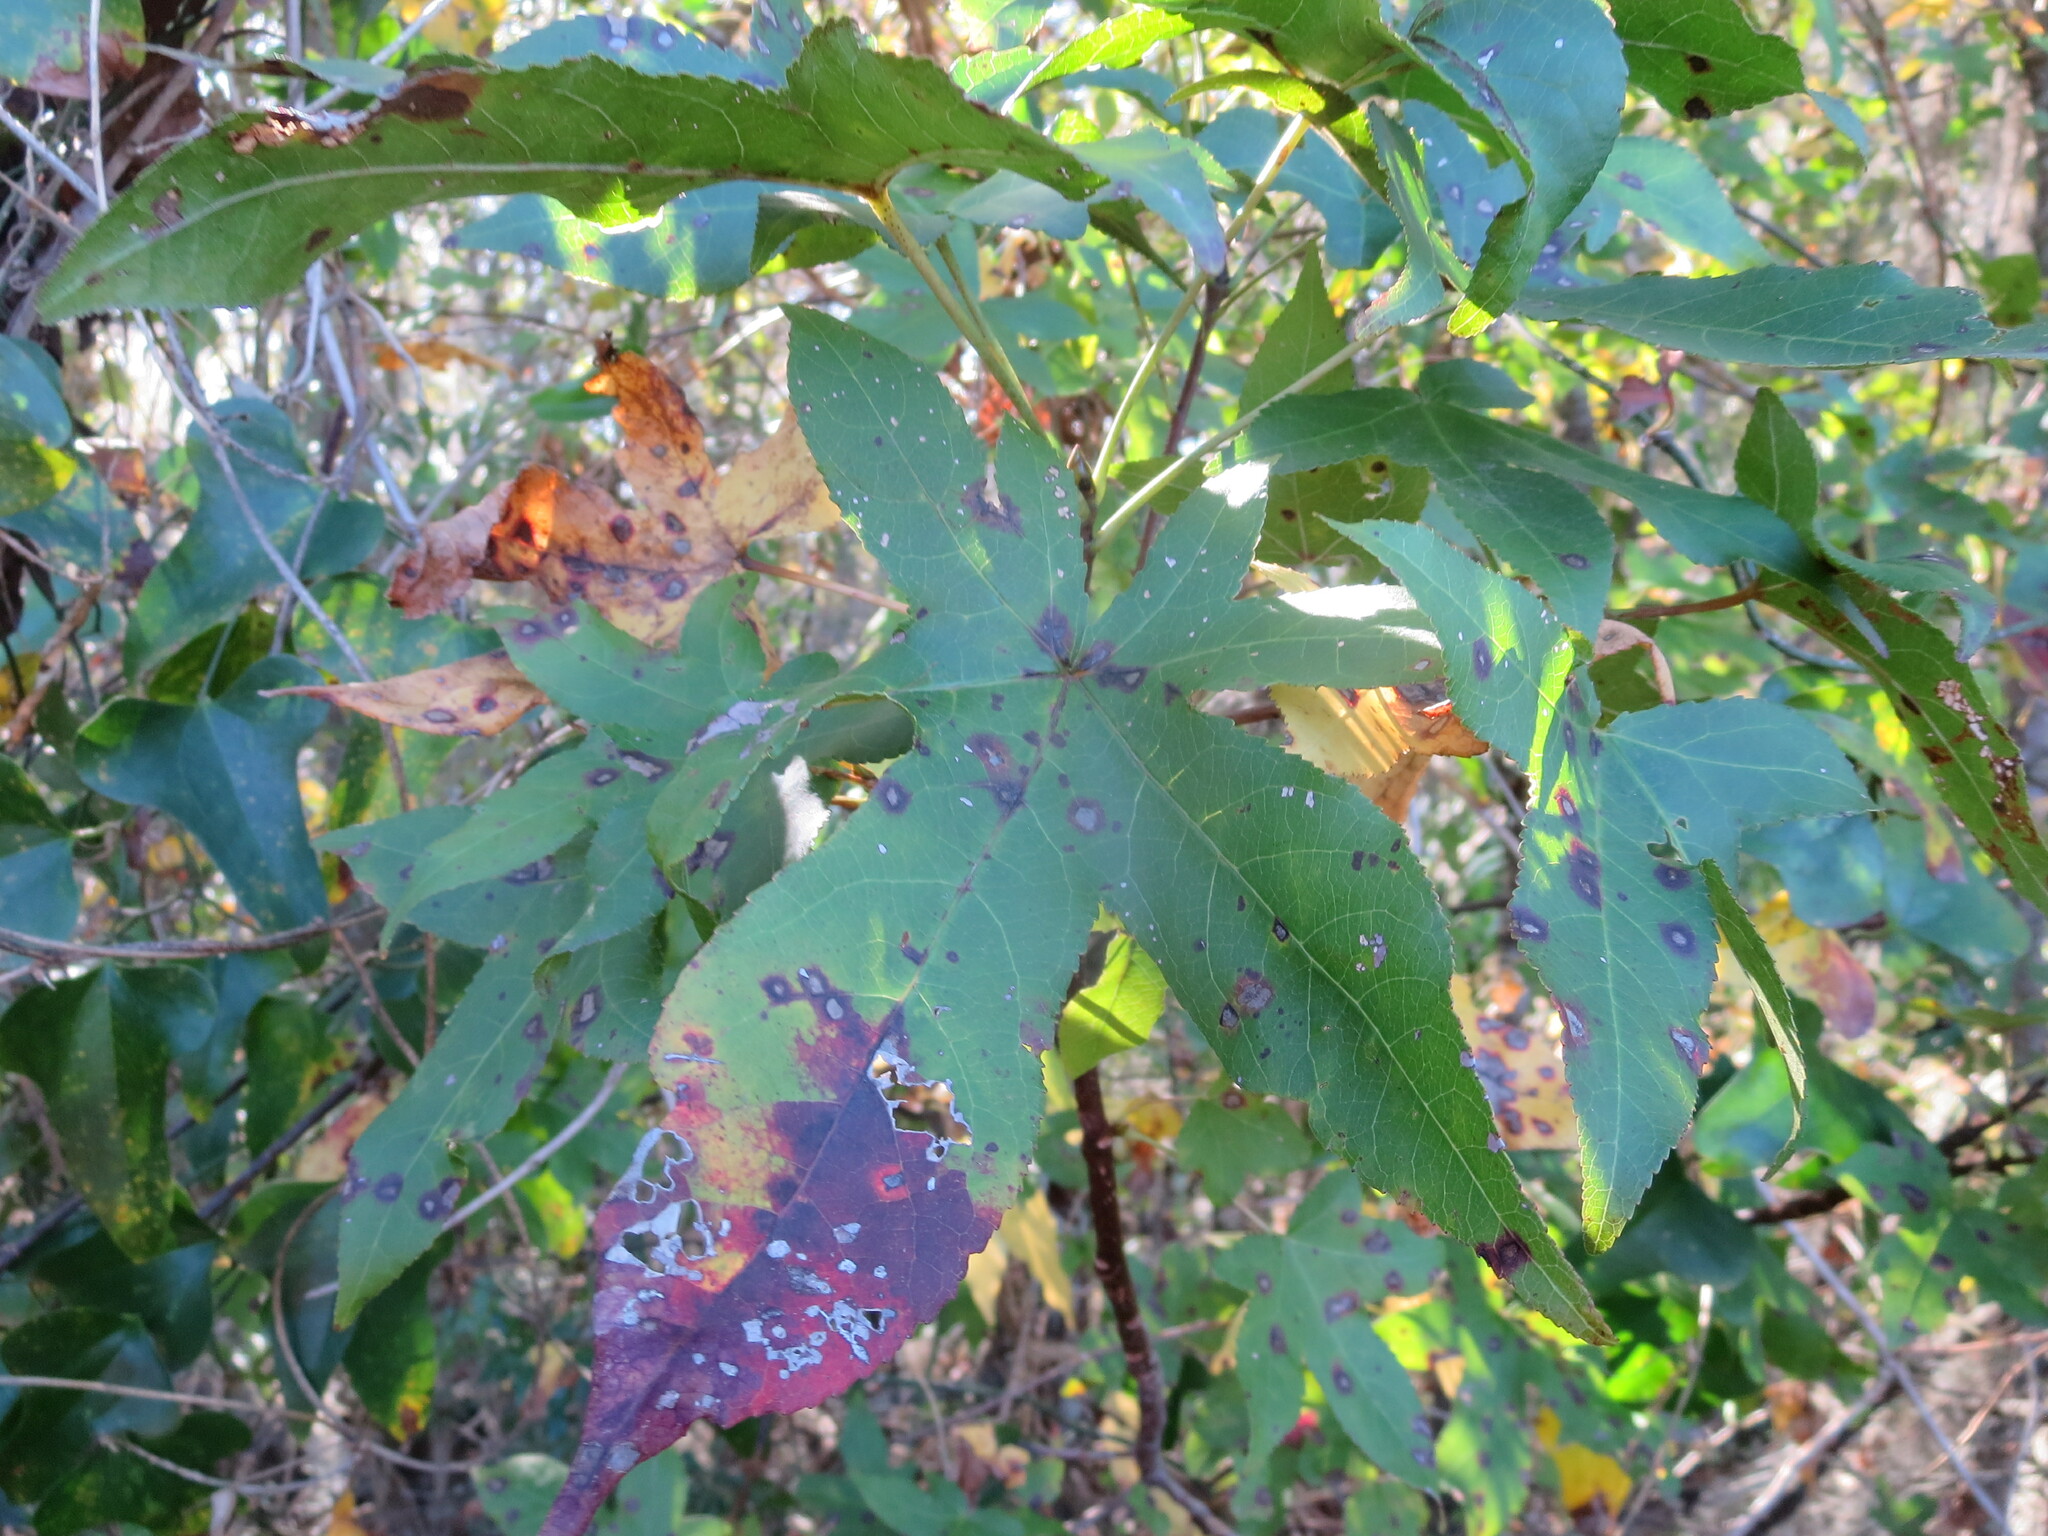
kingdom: Plantae
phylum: Tracheophyta
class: Magnoliopsida
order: Saxifragales
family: Altingiaceae
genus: Liquidambar
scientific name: Liquidambar styraciflua
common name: Sweet gum
